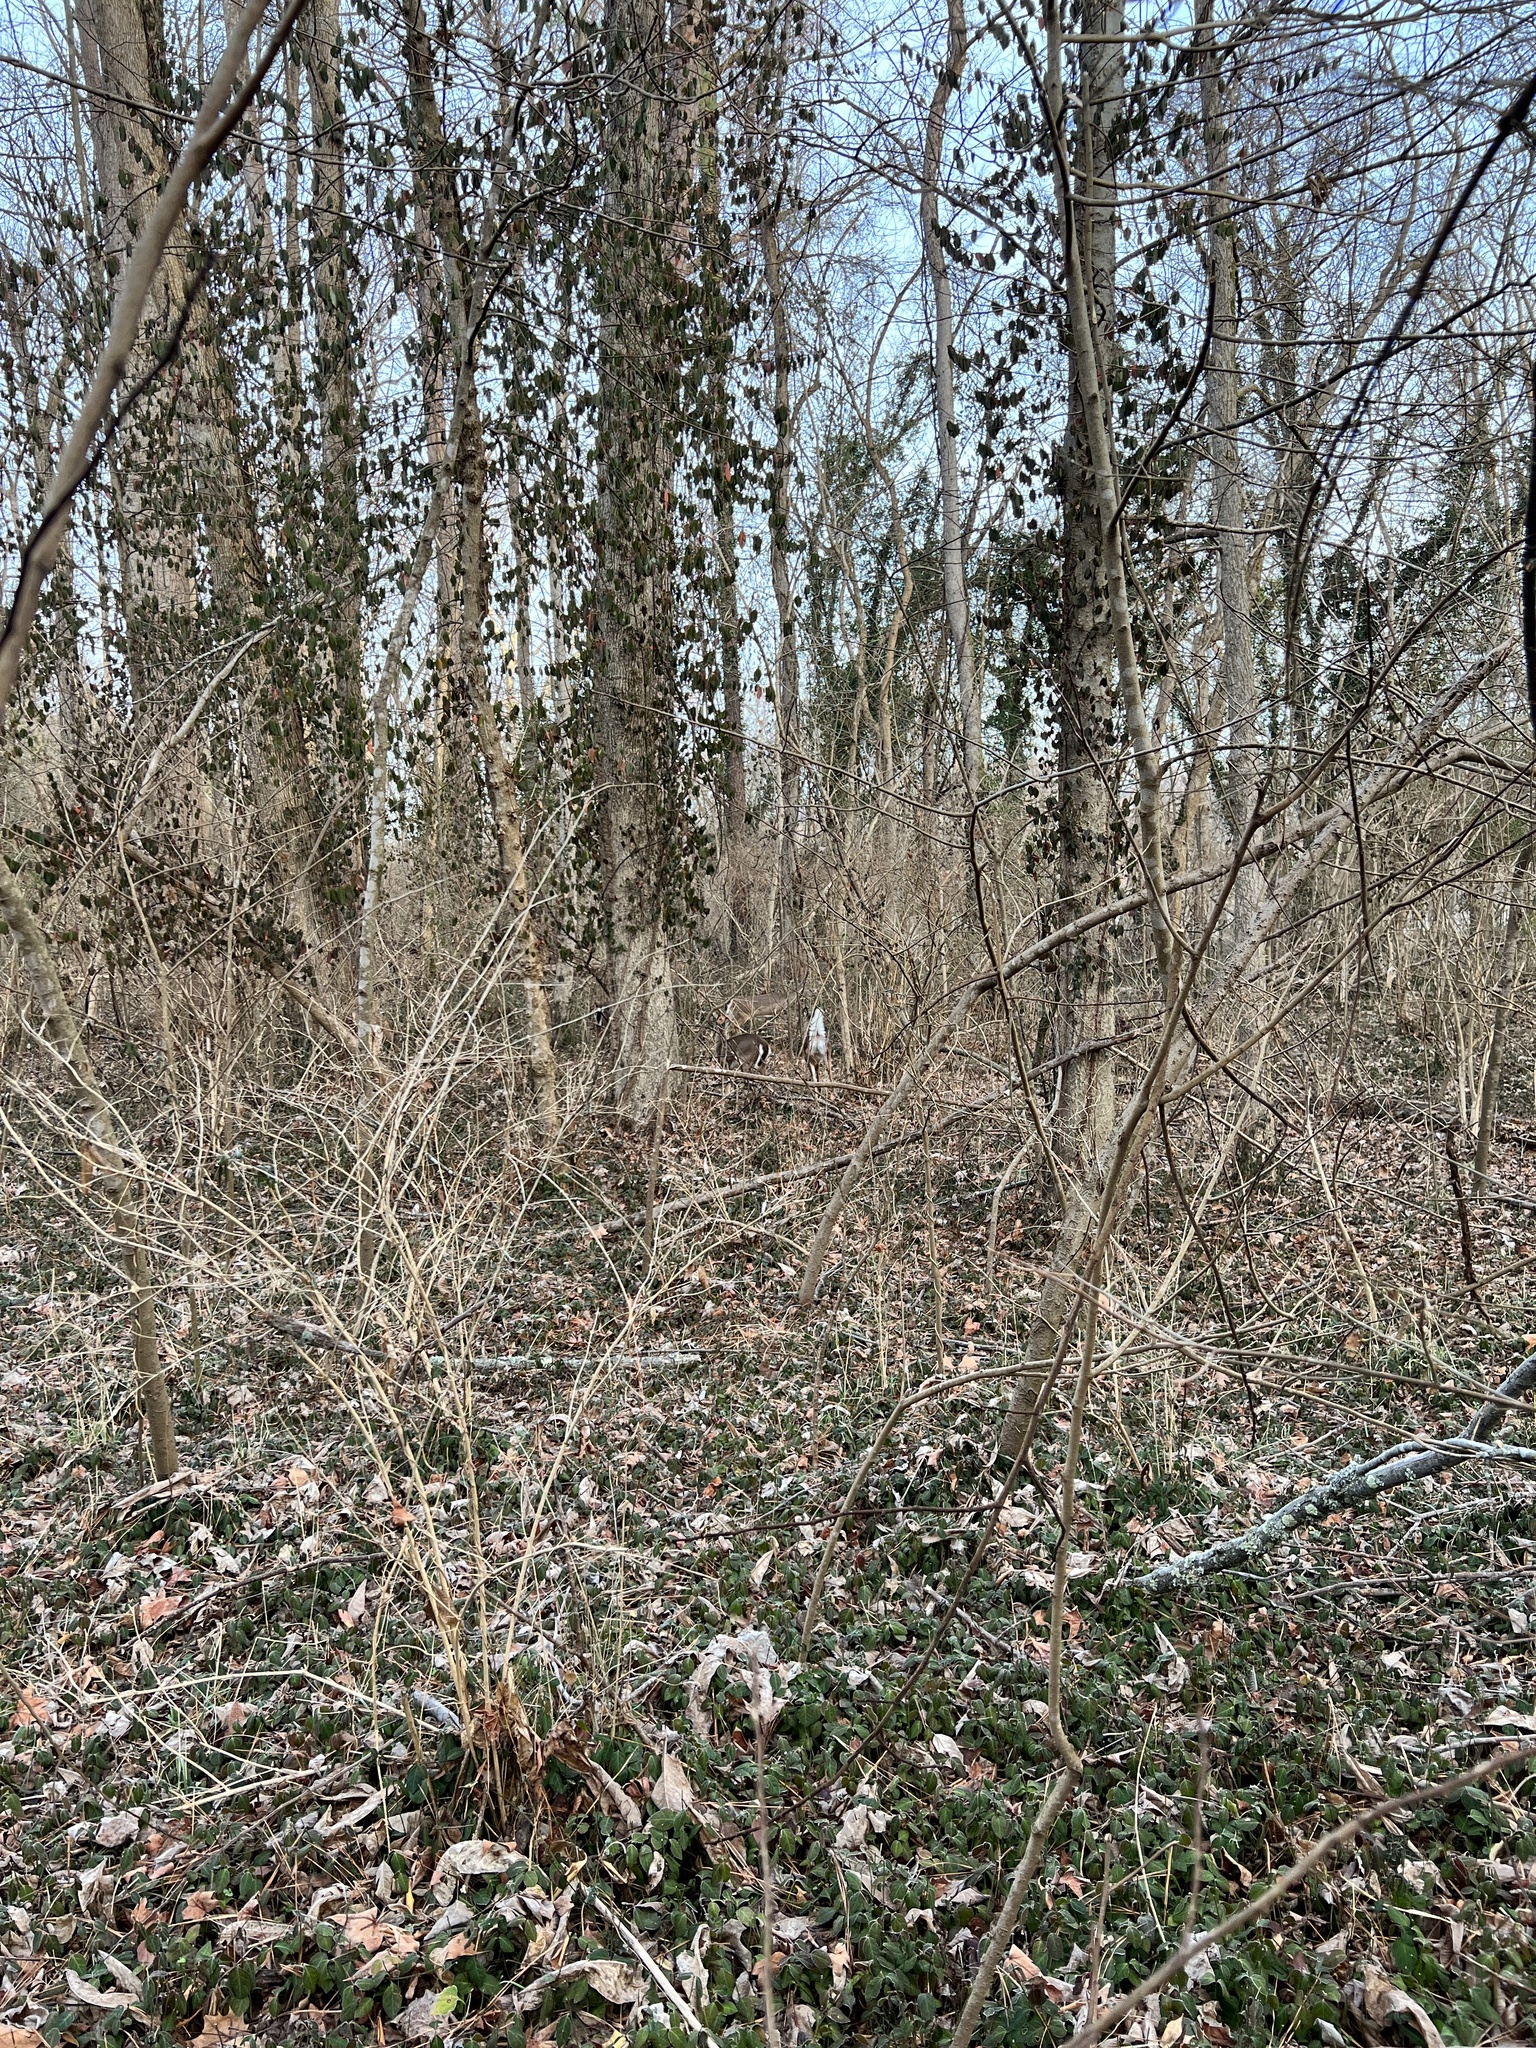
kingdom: Animalia
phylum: Chordata
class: Mammalia
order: Artiodactyla
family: Cervidae
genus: Odocoileus
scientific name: Odocoileus virginianus
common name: White-tailed deer
